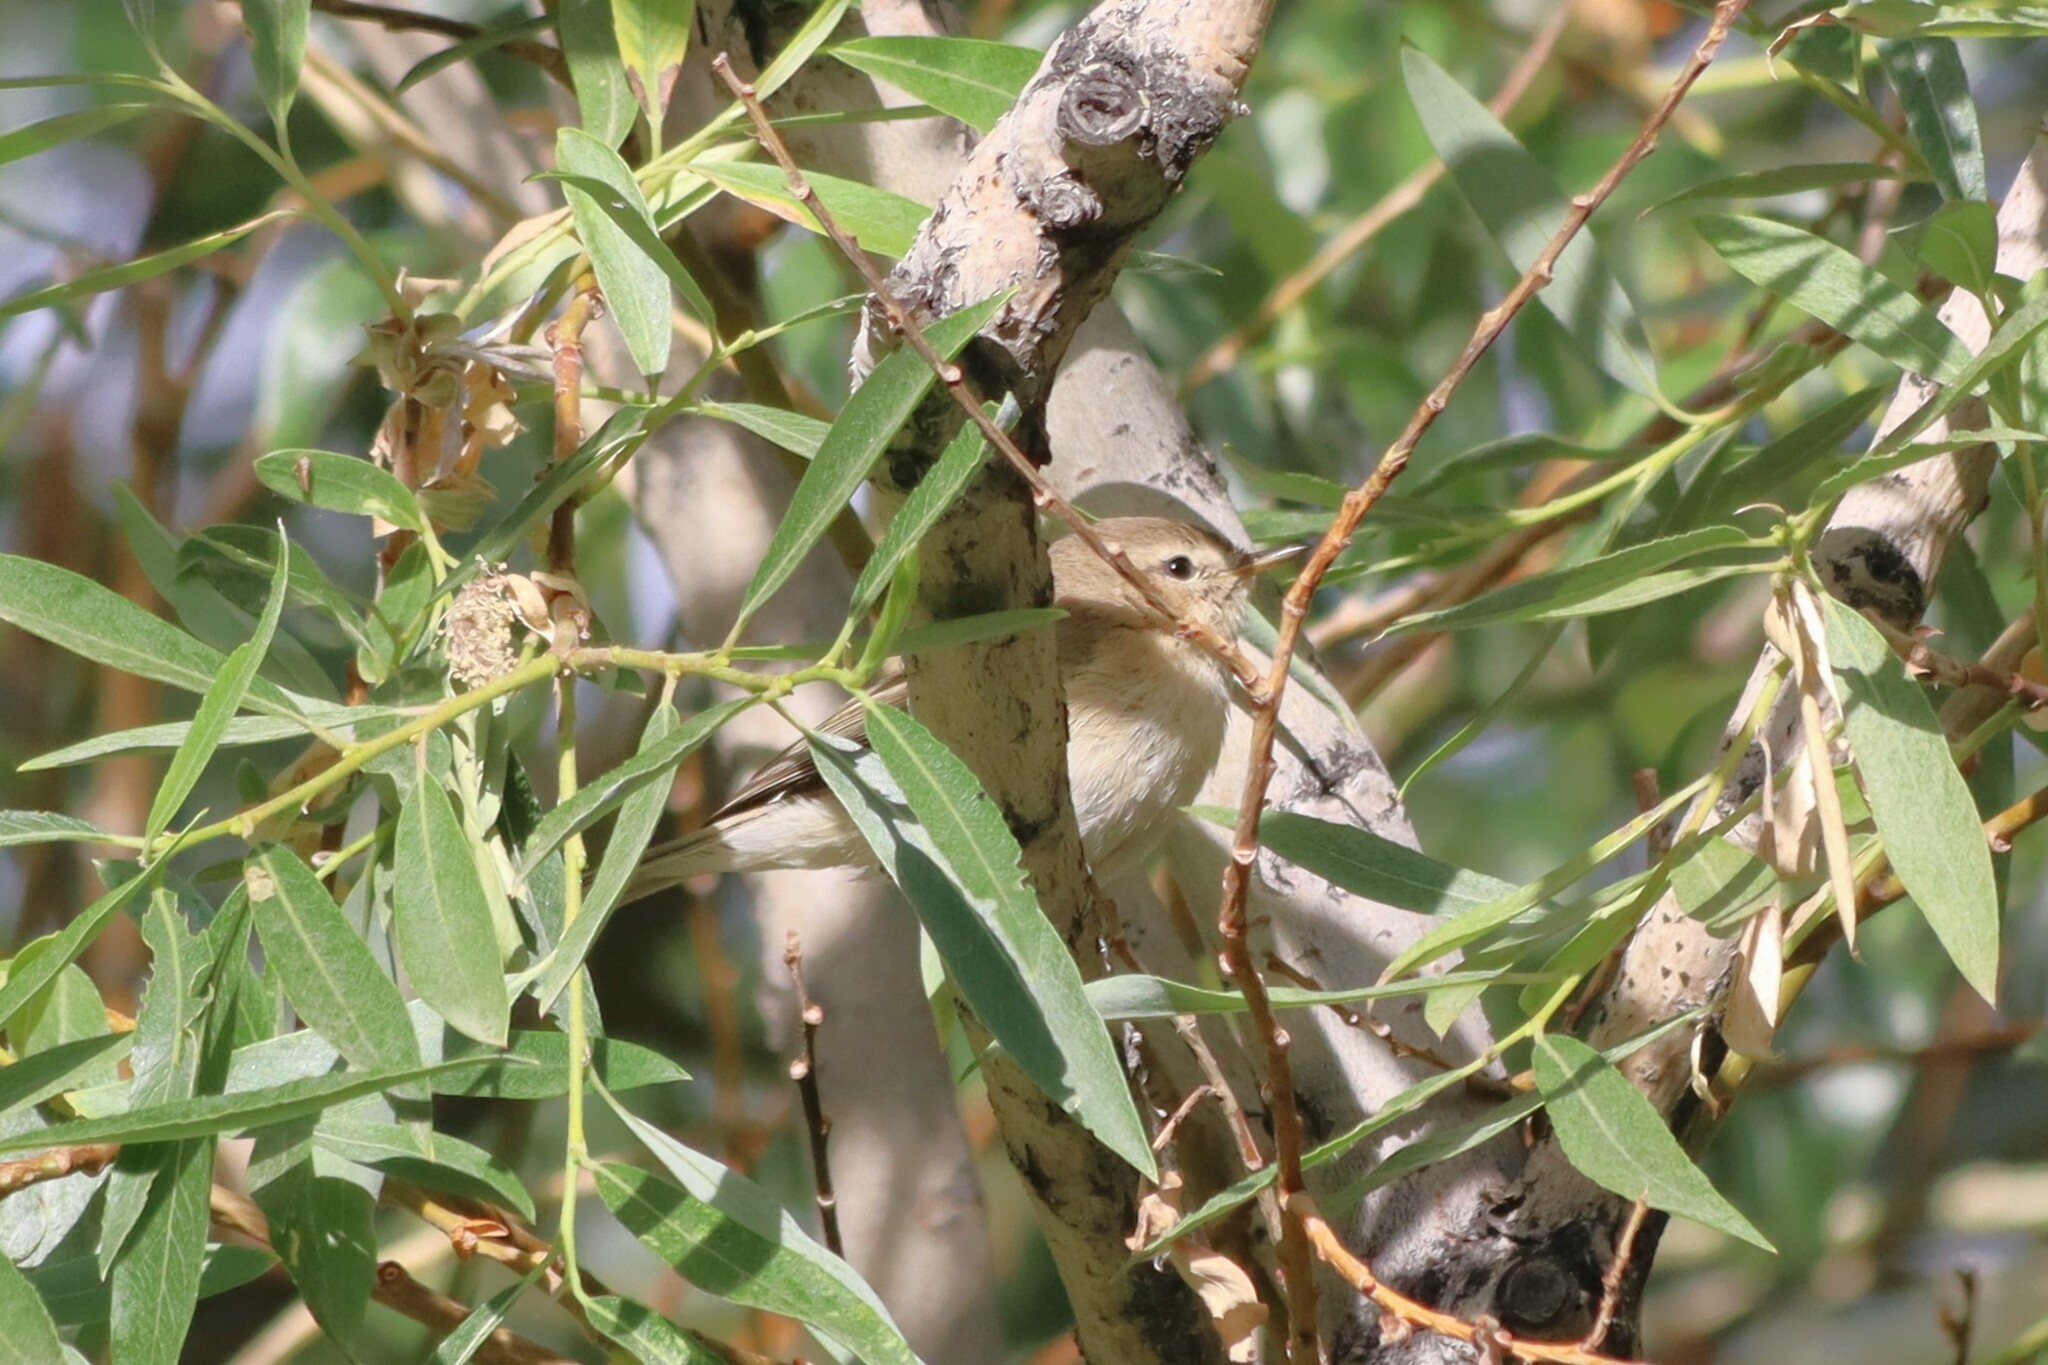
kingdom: Animalia
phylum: Chordata
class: Aves
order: Passeriformes
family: Phylloscopidae
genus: Phylloscopus
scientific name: Phylloscopus sindianus
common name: Mountain chiffchaff
